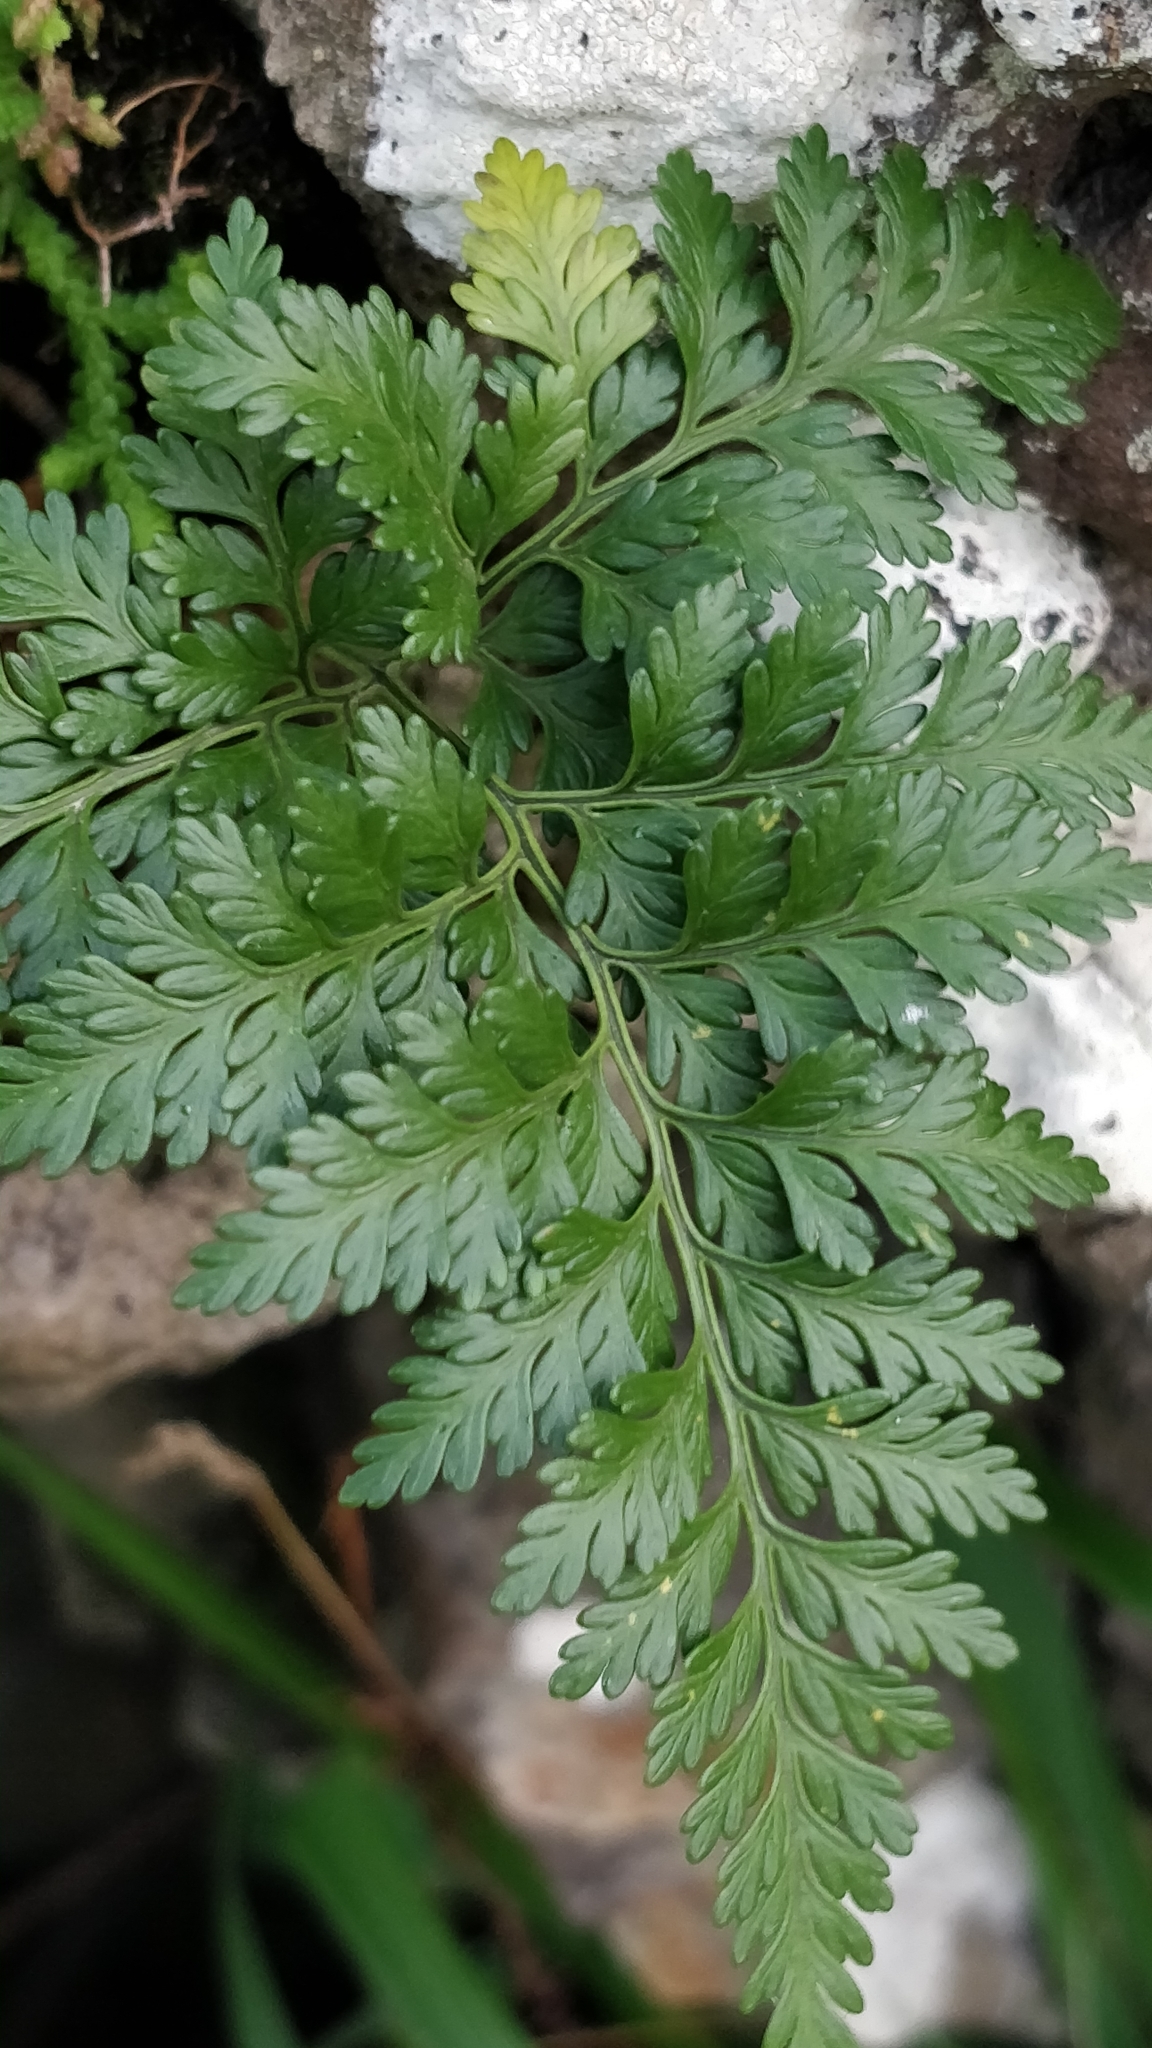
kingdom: Plantae
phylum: Tracheophyta
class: Polypodiopsida
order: Polypodiales
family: Davalliaceae
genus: Davallia
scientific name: Davallia canariensis
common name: Hare's-foot fern
